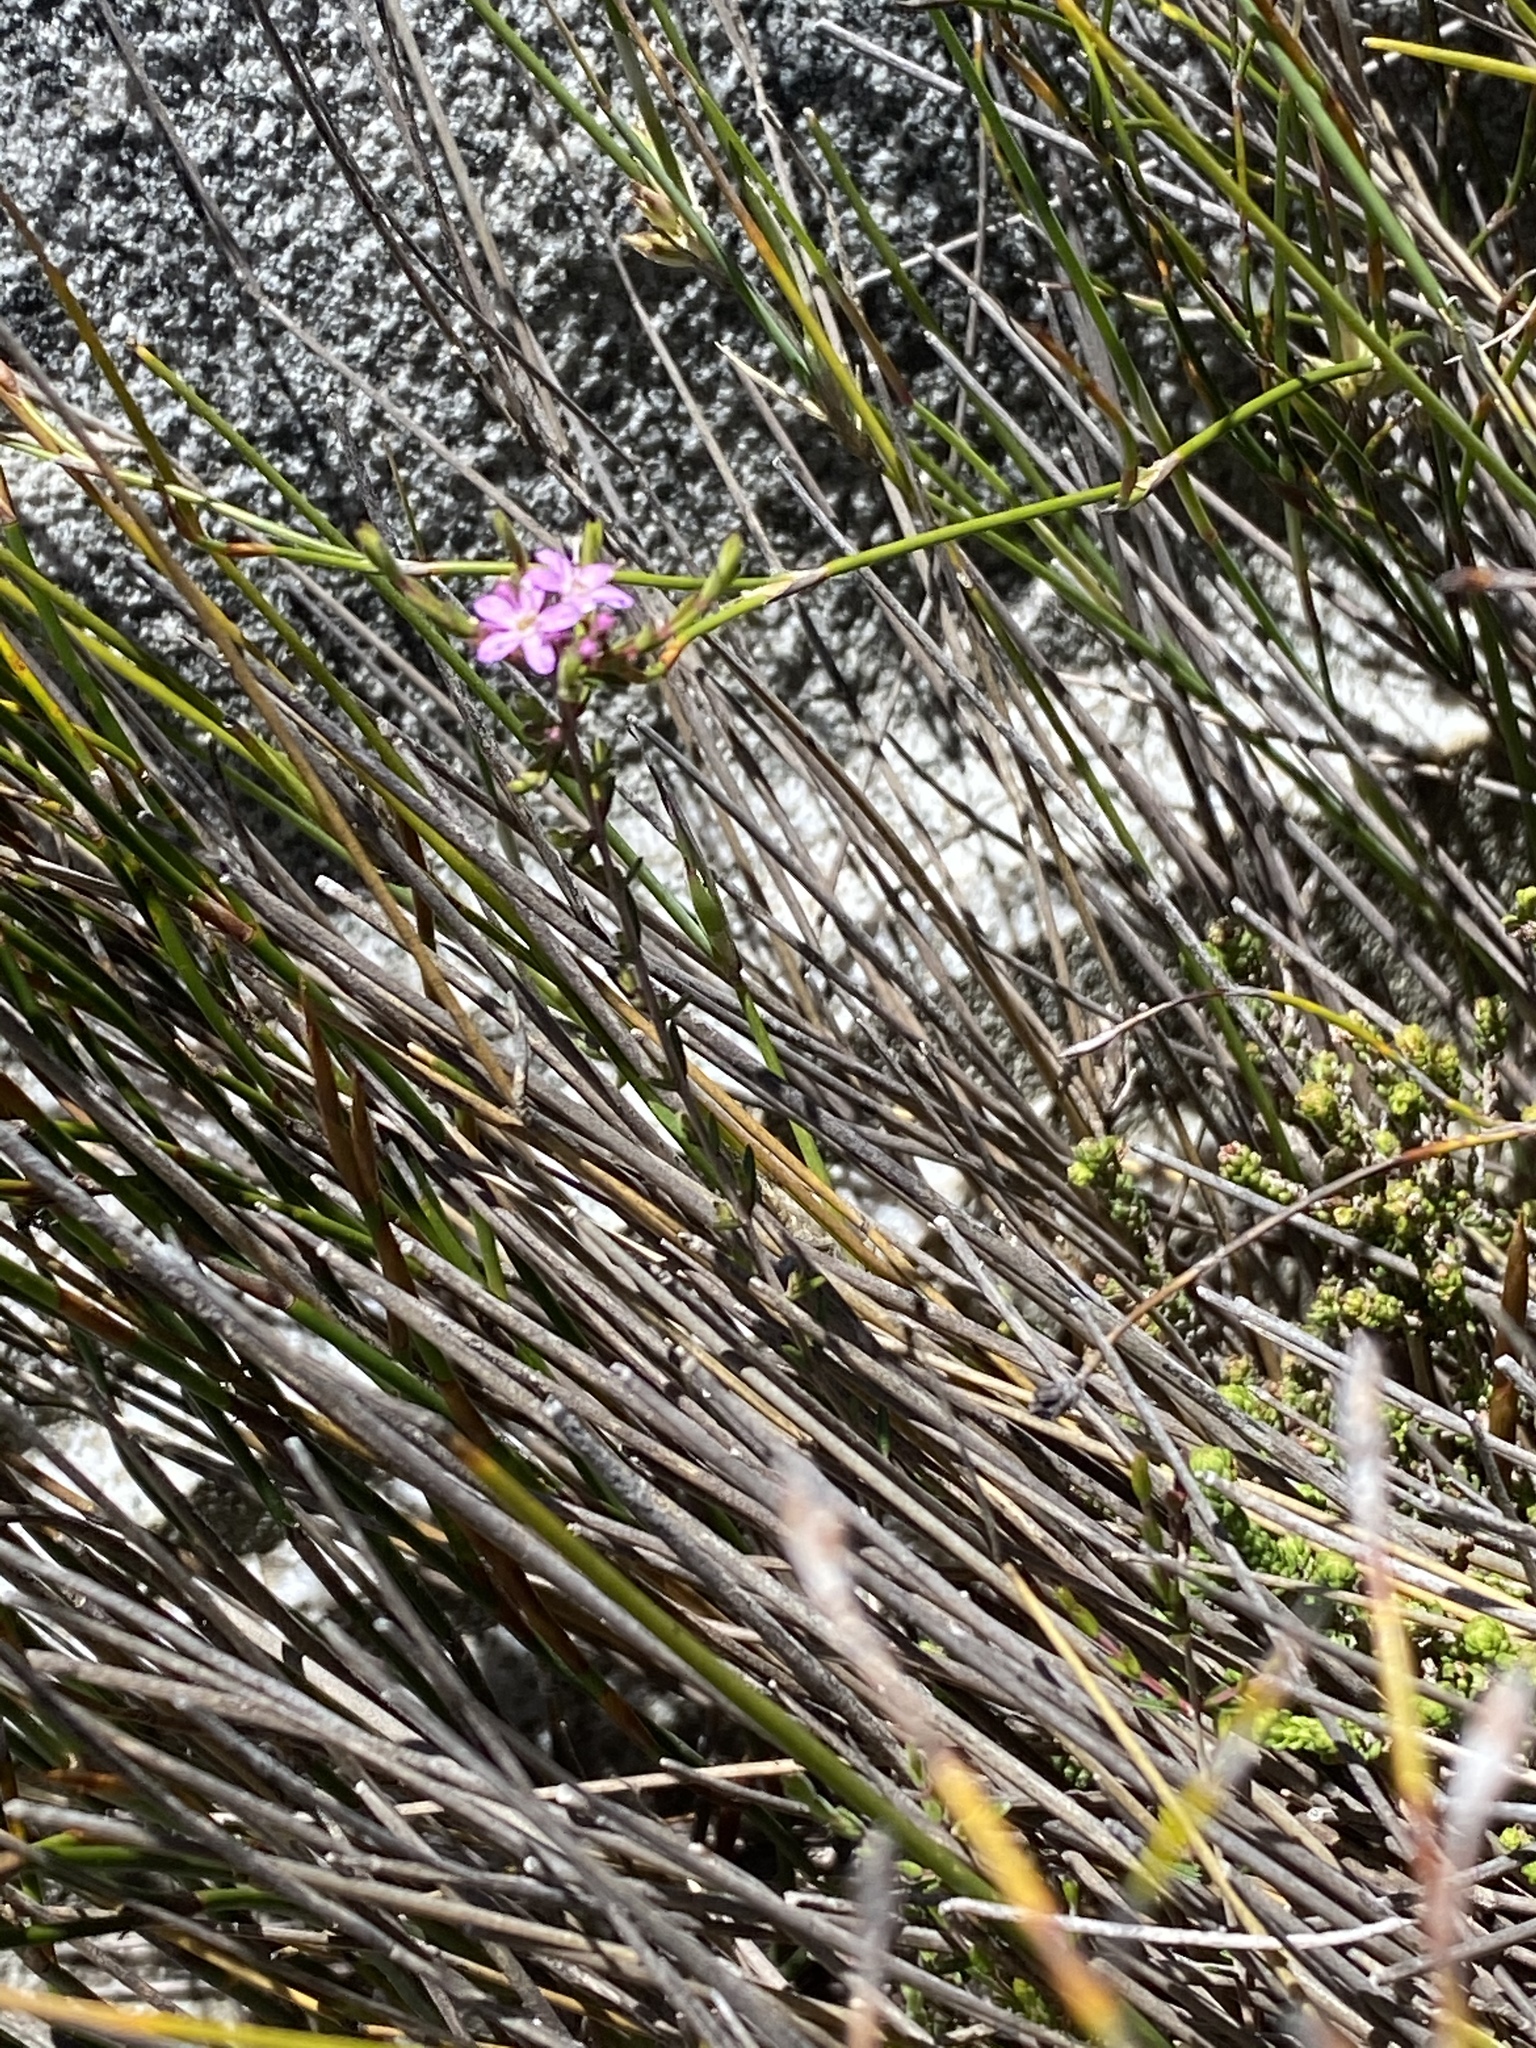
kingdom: Plantae
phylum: Tracheophyta
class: Magnoliopsida
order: Sapindales
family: Rutaceae
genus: Agathosma
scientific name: Agathosma purpurea
